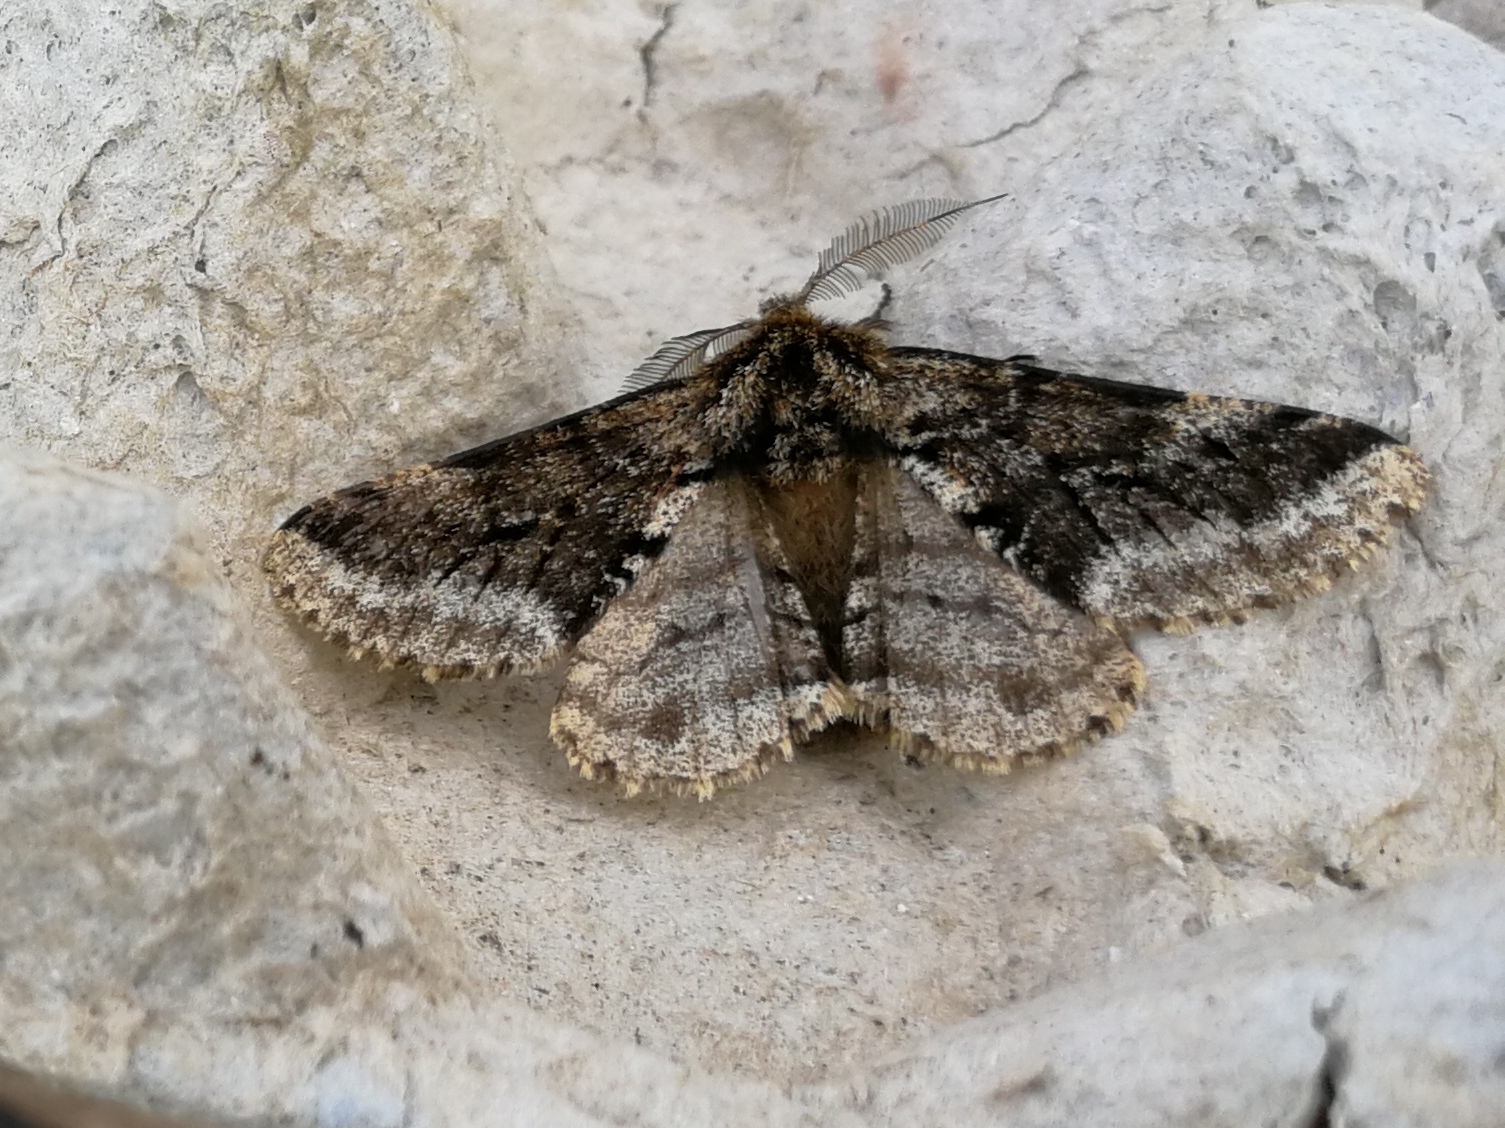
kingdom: Animalia
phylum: Arthropoda
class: Insecta
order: Lepidoptera
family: Geometridae
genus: Lycia
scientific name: Lycia hirtaria
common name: Brindled beauty
